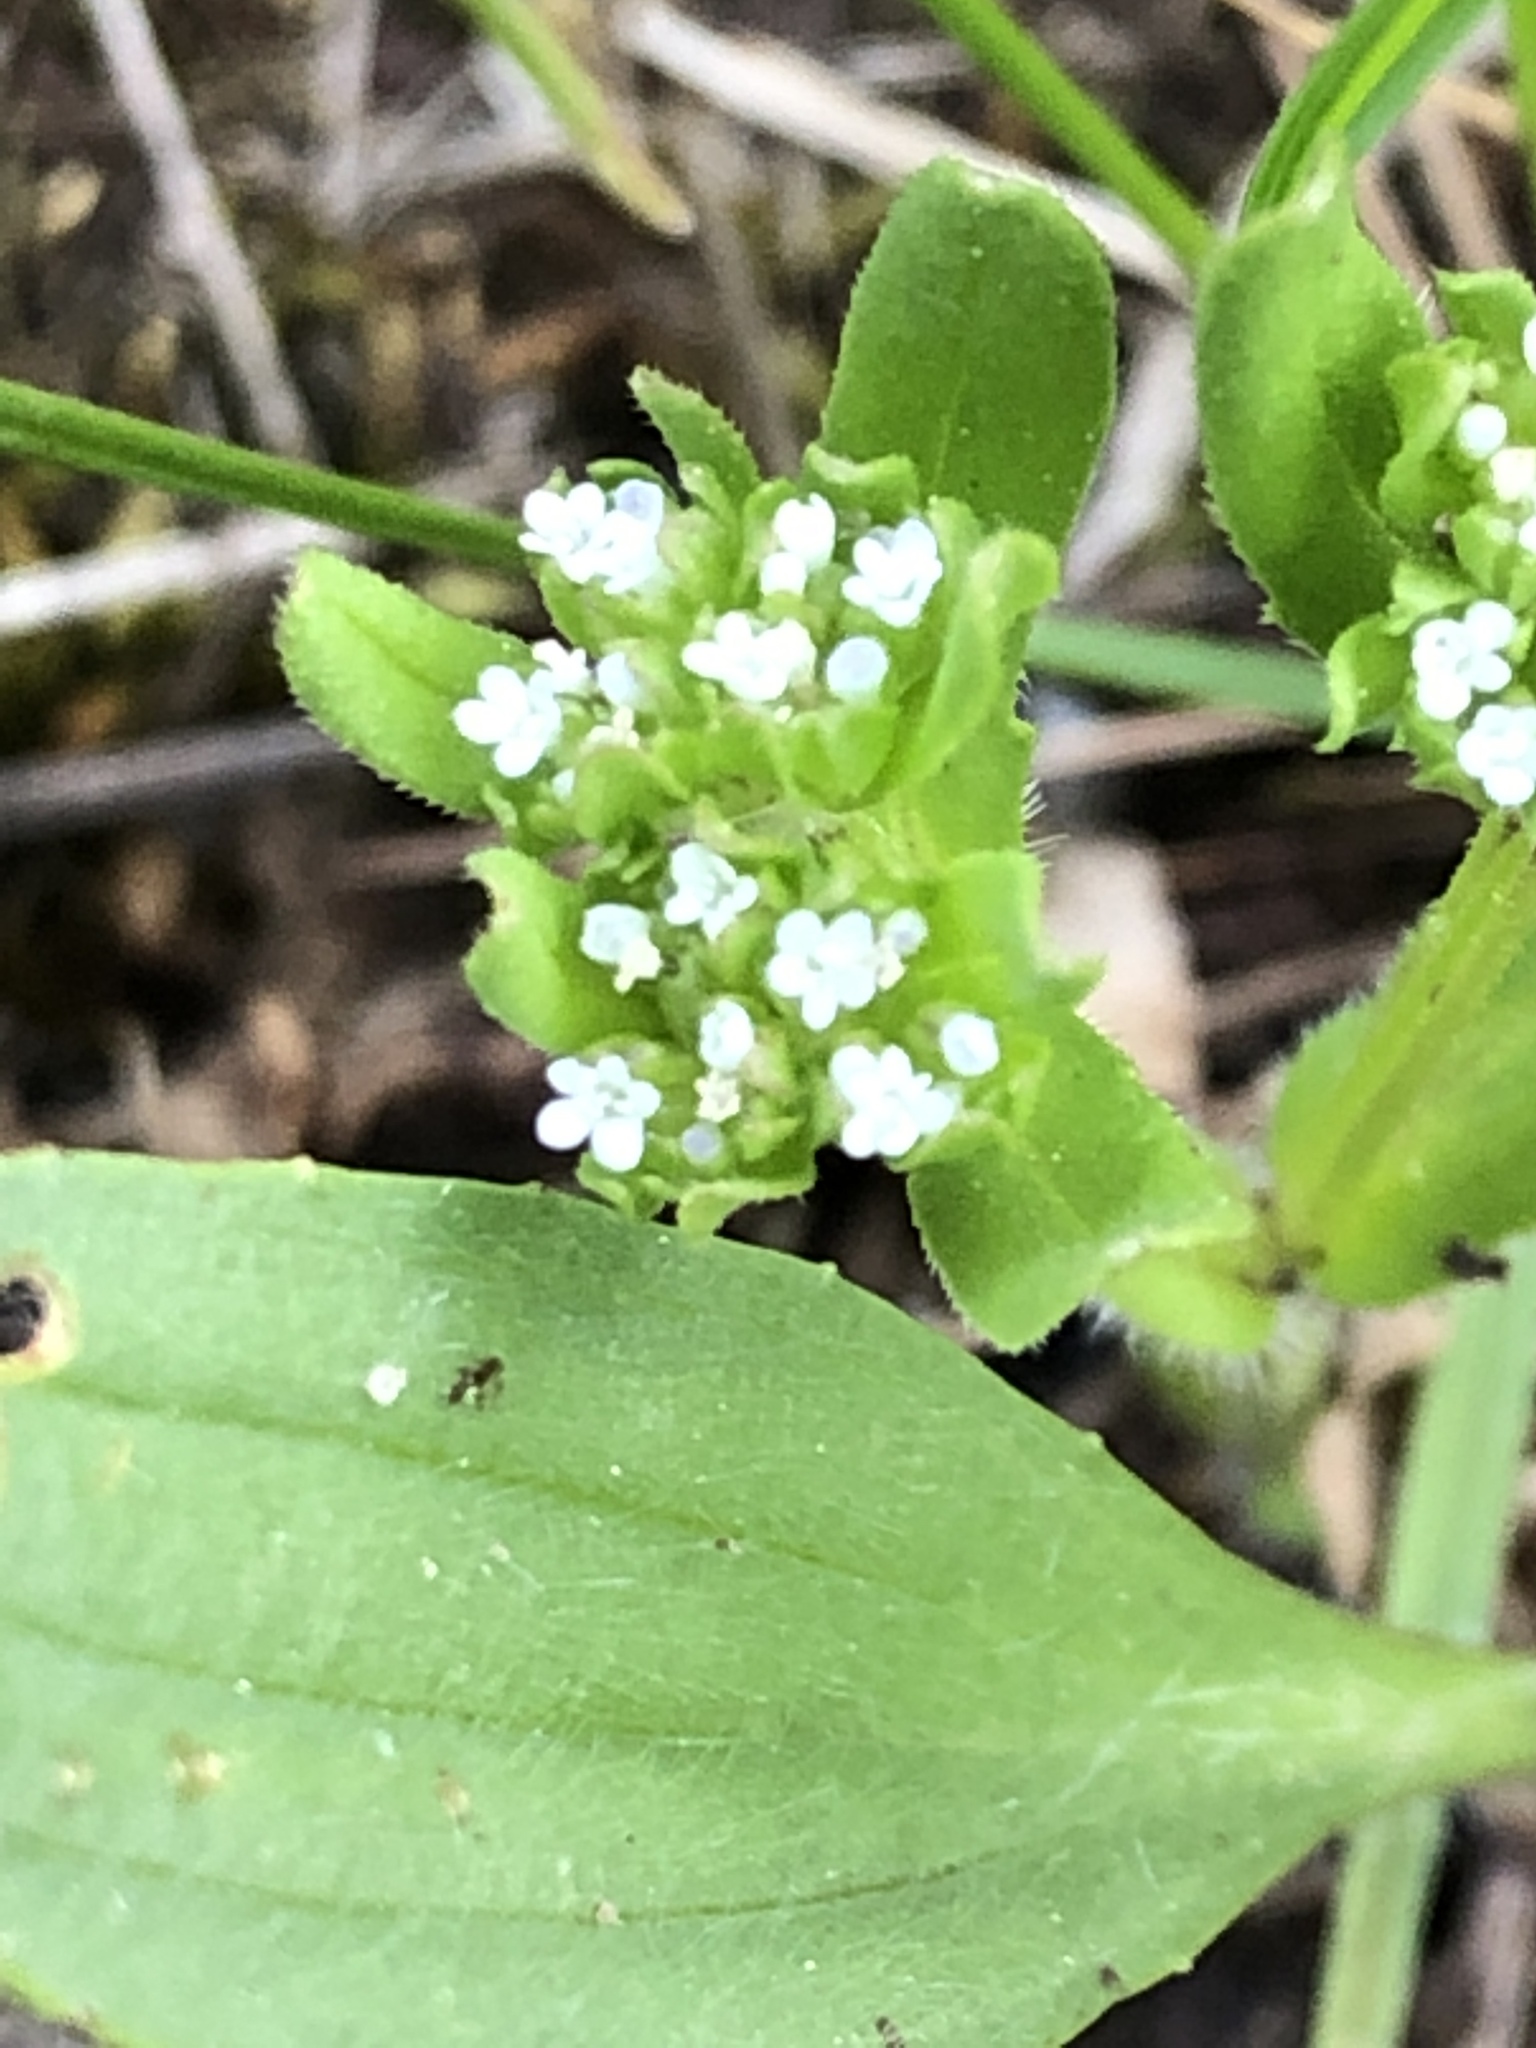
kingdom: Plantae
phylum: Tracheophyta
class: Magnoliopsida
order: Dipsacales
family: Caprifoliaceae
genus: Valerianella
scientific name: Valerianella
